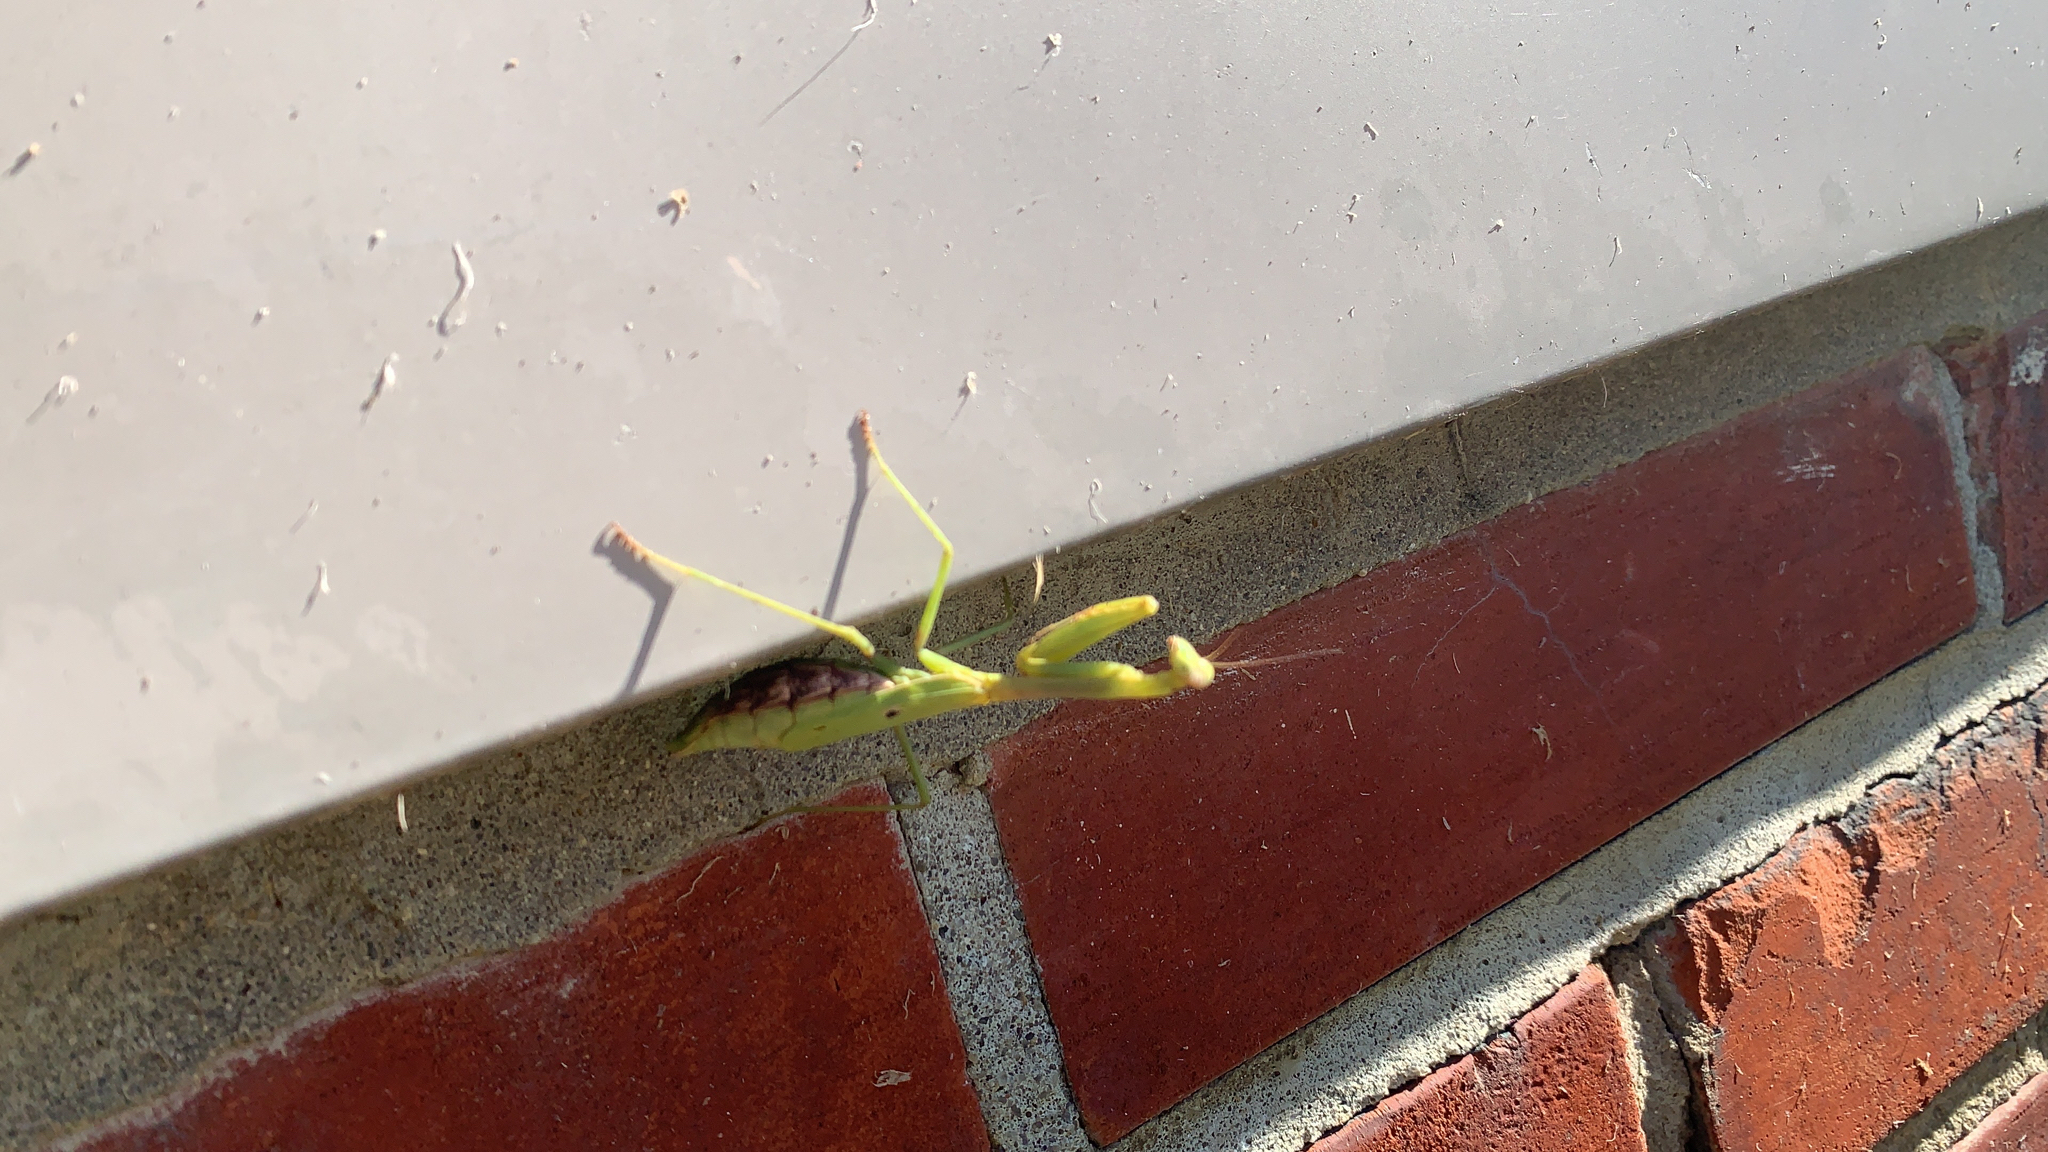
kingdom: Animalia
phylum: Arthropoda
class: Insecta
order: Mantodea
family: Mantidae
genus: Stagmomantis
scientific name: Stagmomantis carolina
